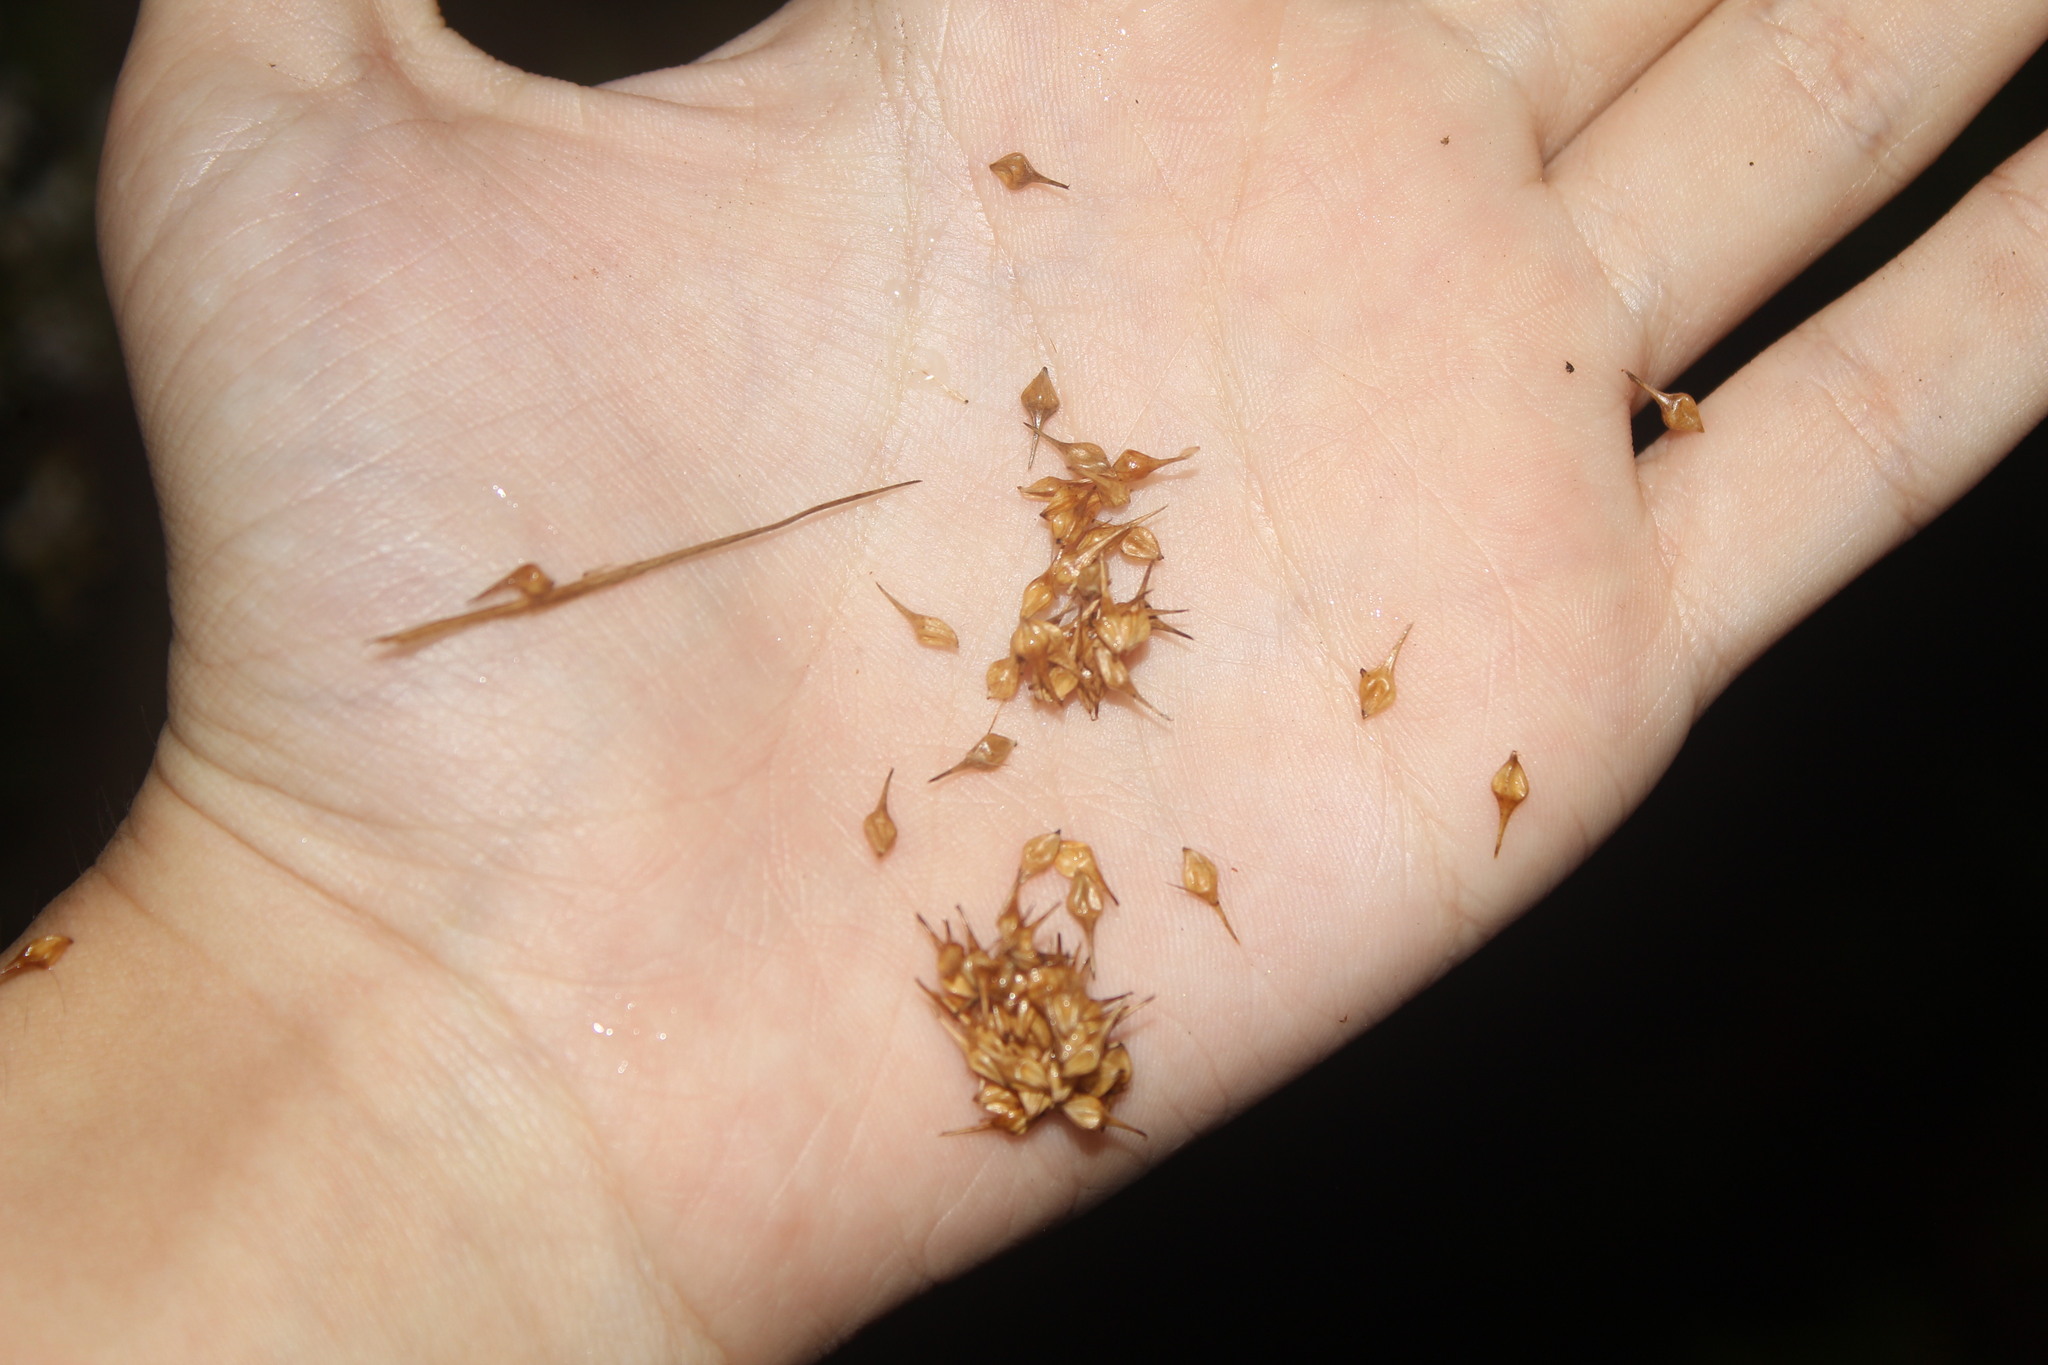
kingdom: Plantae
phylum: Tracheophyta
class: Liliopsida
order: Poales
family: Cyperaceae
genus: Carex
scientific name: Carex lurida
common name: Sallow sedge
